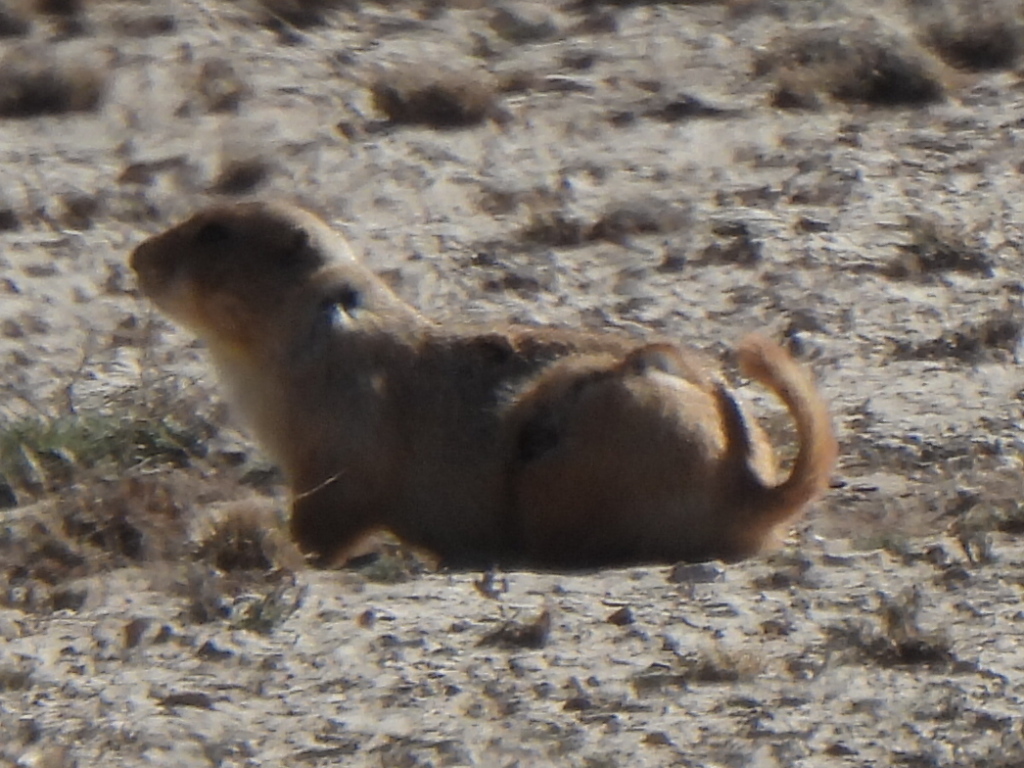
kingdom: Animalia
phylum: Chordata
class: Mammalia
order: Rodentia
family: Sciuridae
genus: Cynomys
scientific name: Cynomys ludovicianus
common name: Black-tailed prairie dog
